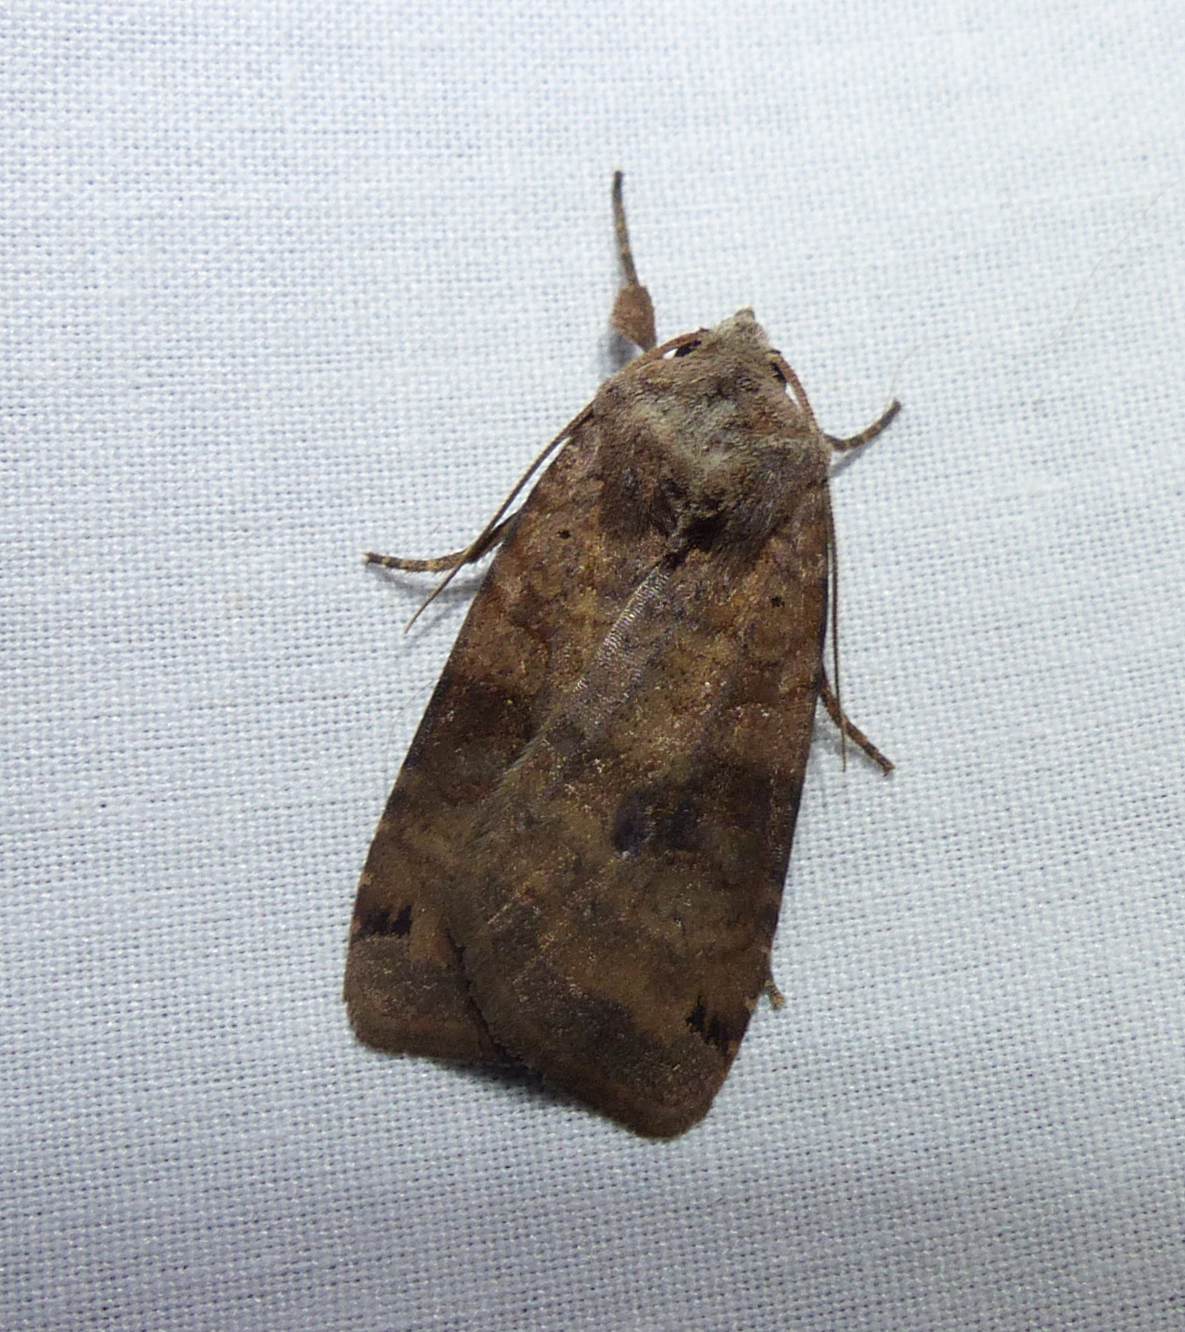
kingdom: Animalia
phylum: Arthropoda
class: Insecta
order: Lepidoptera
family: Noctuidae
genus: Xestia
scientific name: Xestia smithii
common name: Smith's dart
